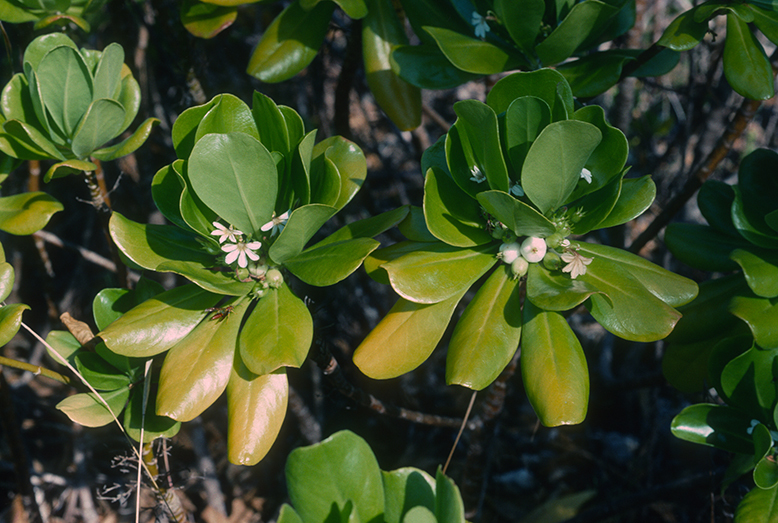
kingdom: Plantae
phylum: Tracheophyta
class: Magnoliopsida
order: Asterales
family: Goodeniaceae
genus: Scaevola
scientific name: Scaevola taccada
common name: Sea lettucetree
